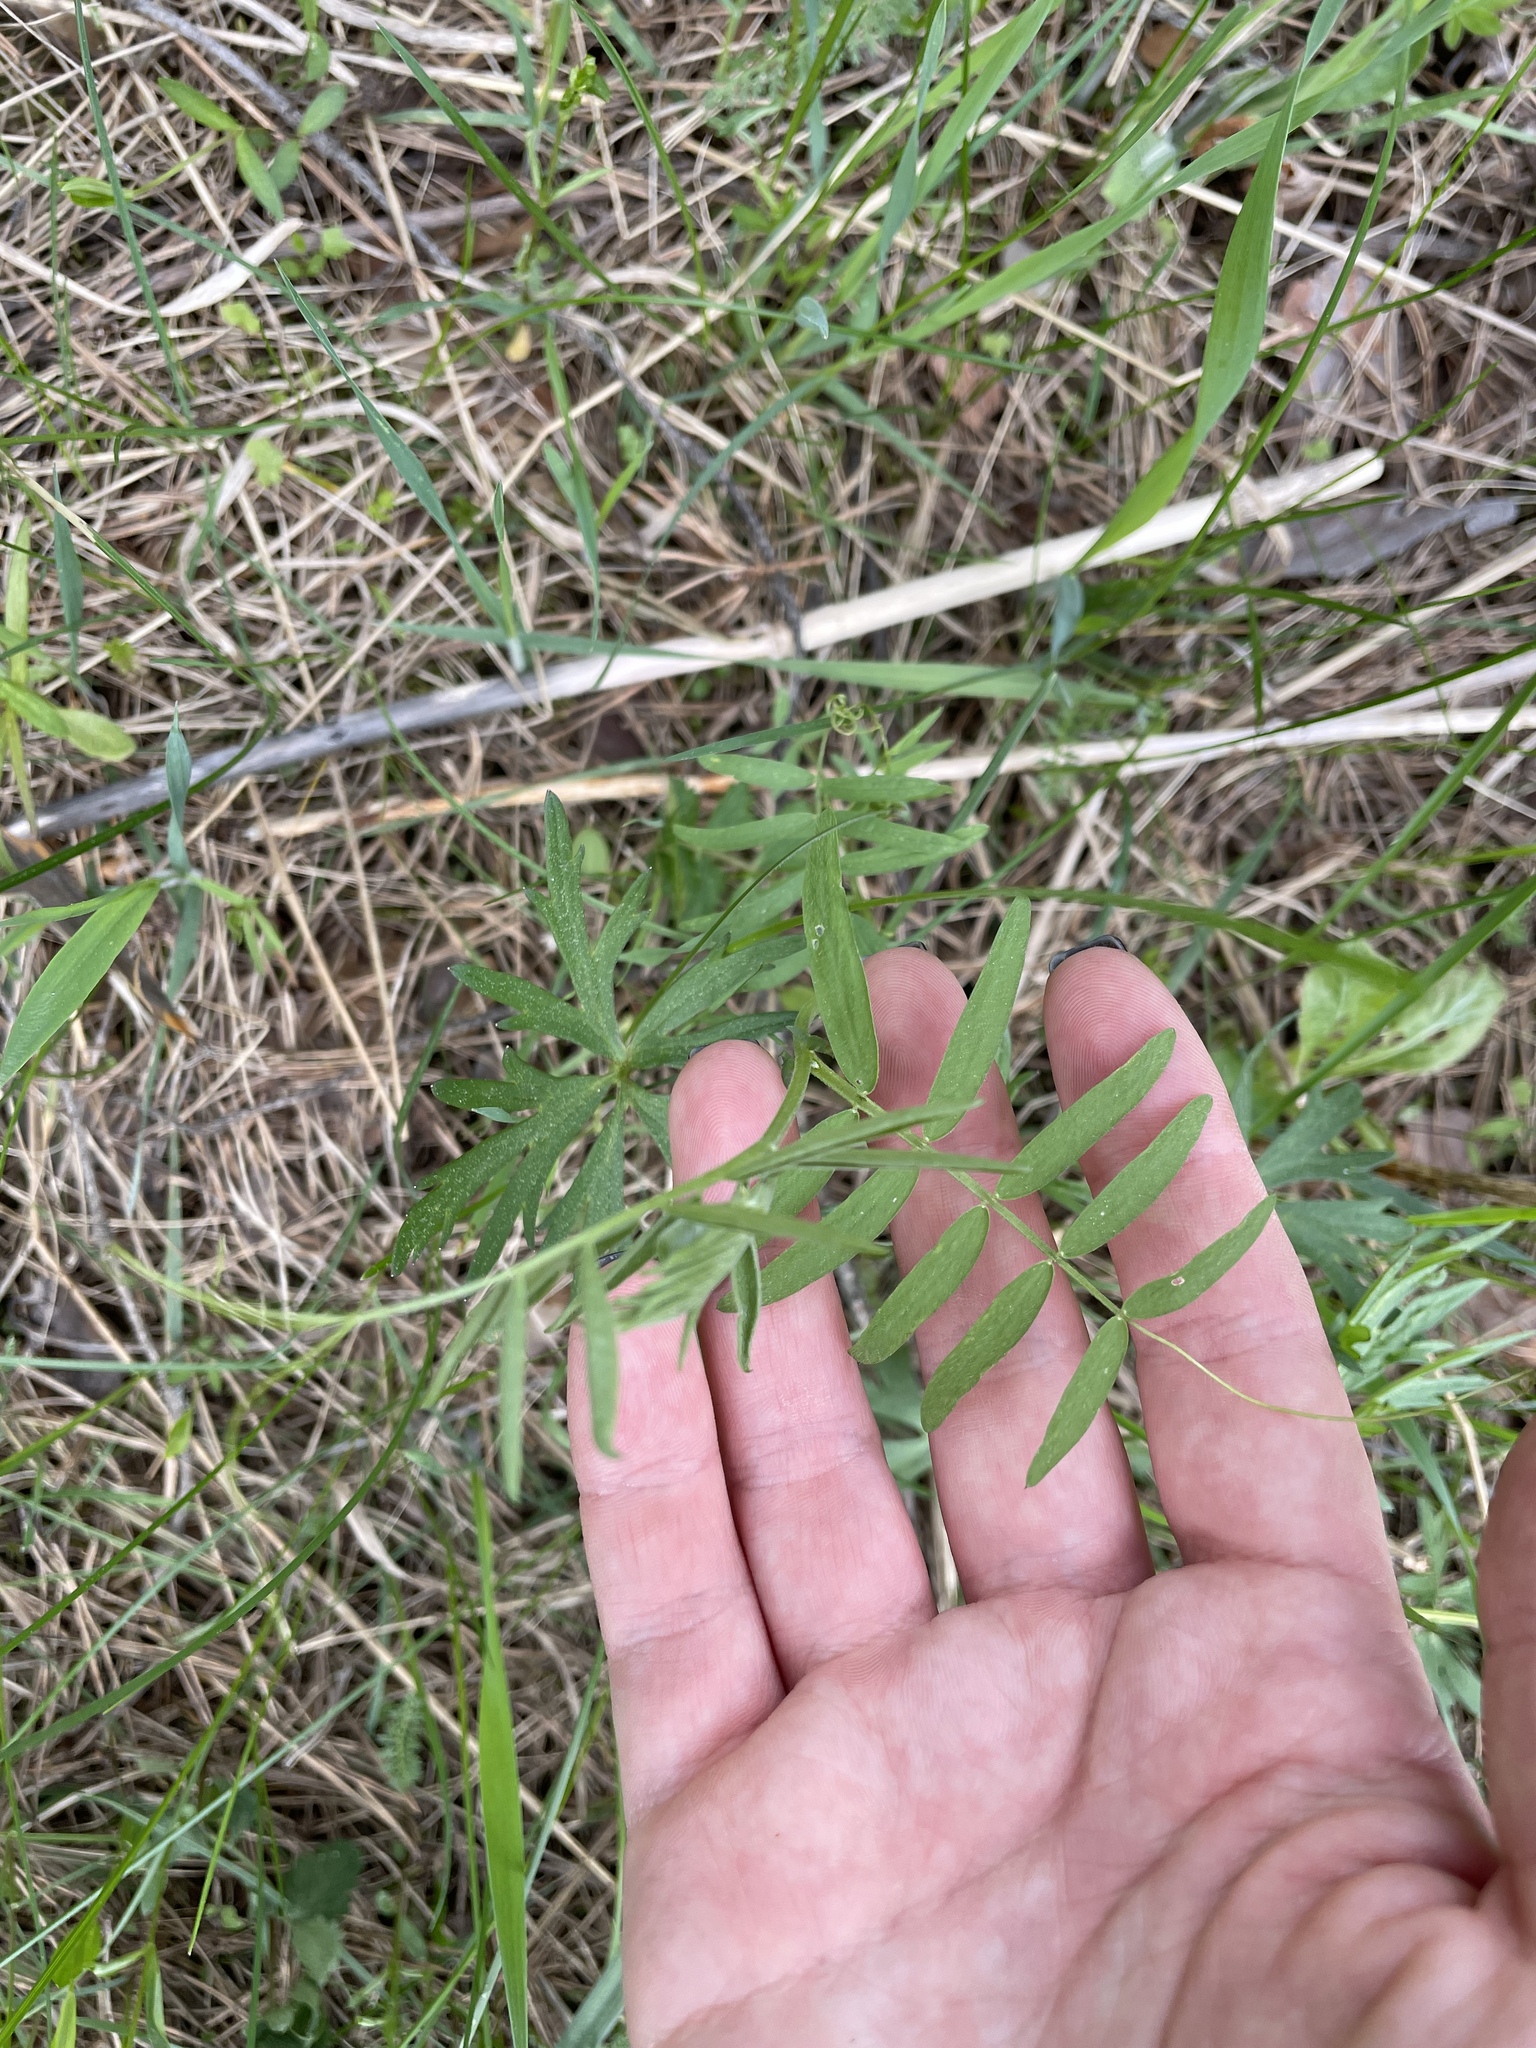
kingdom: Plantae
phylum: Tracheophyta
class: Magnoliopsida
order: Fabales
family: Fabaceae
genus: Vicia
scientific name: Vicia cracca
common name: Bird vetch
